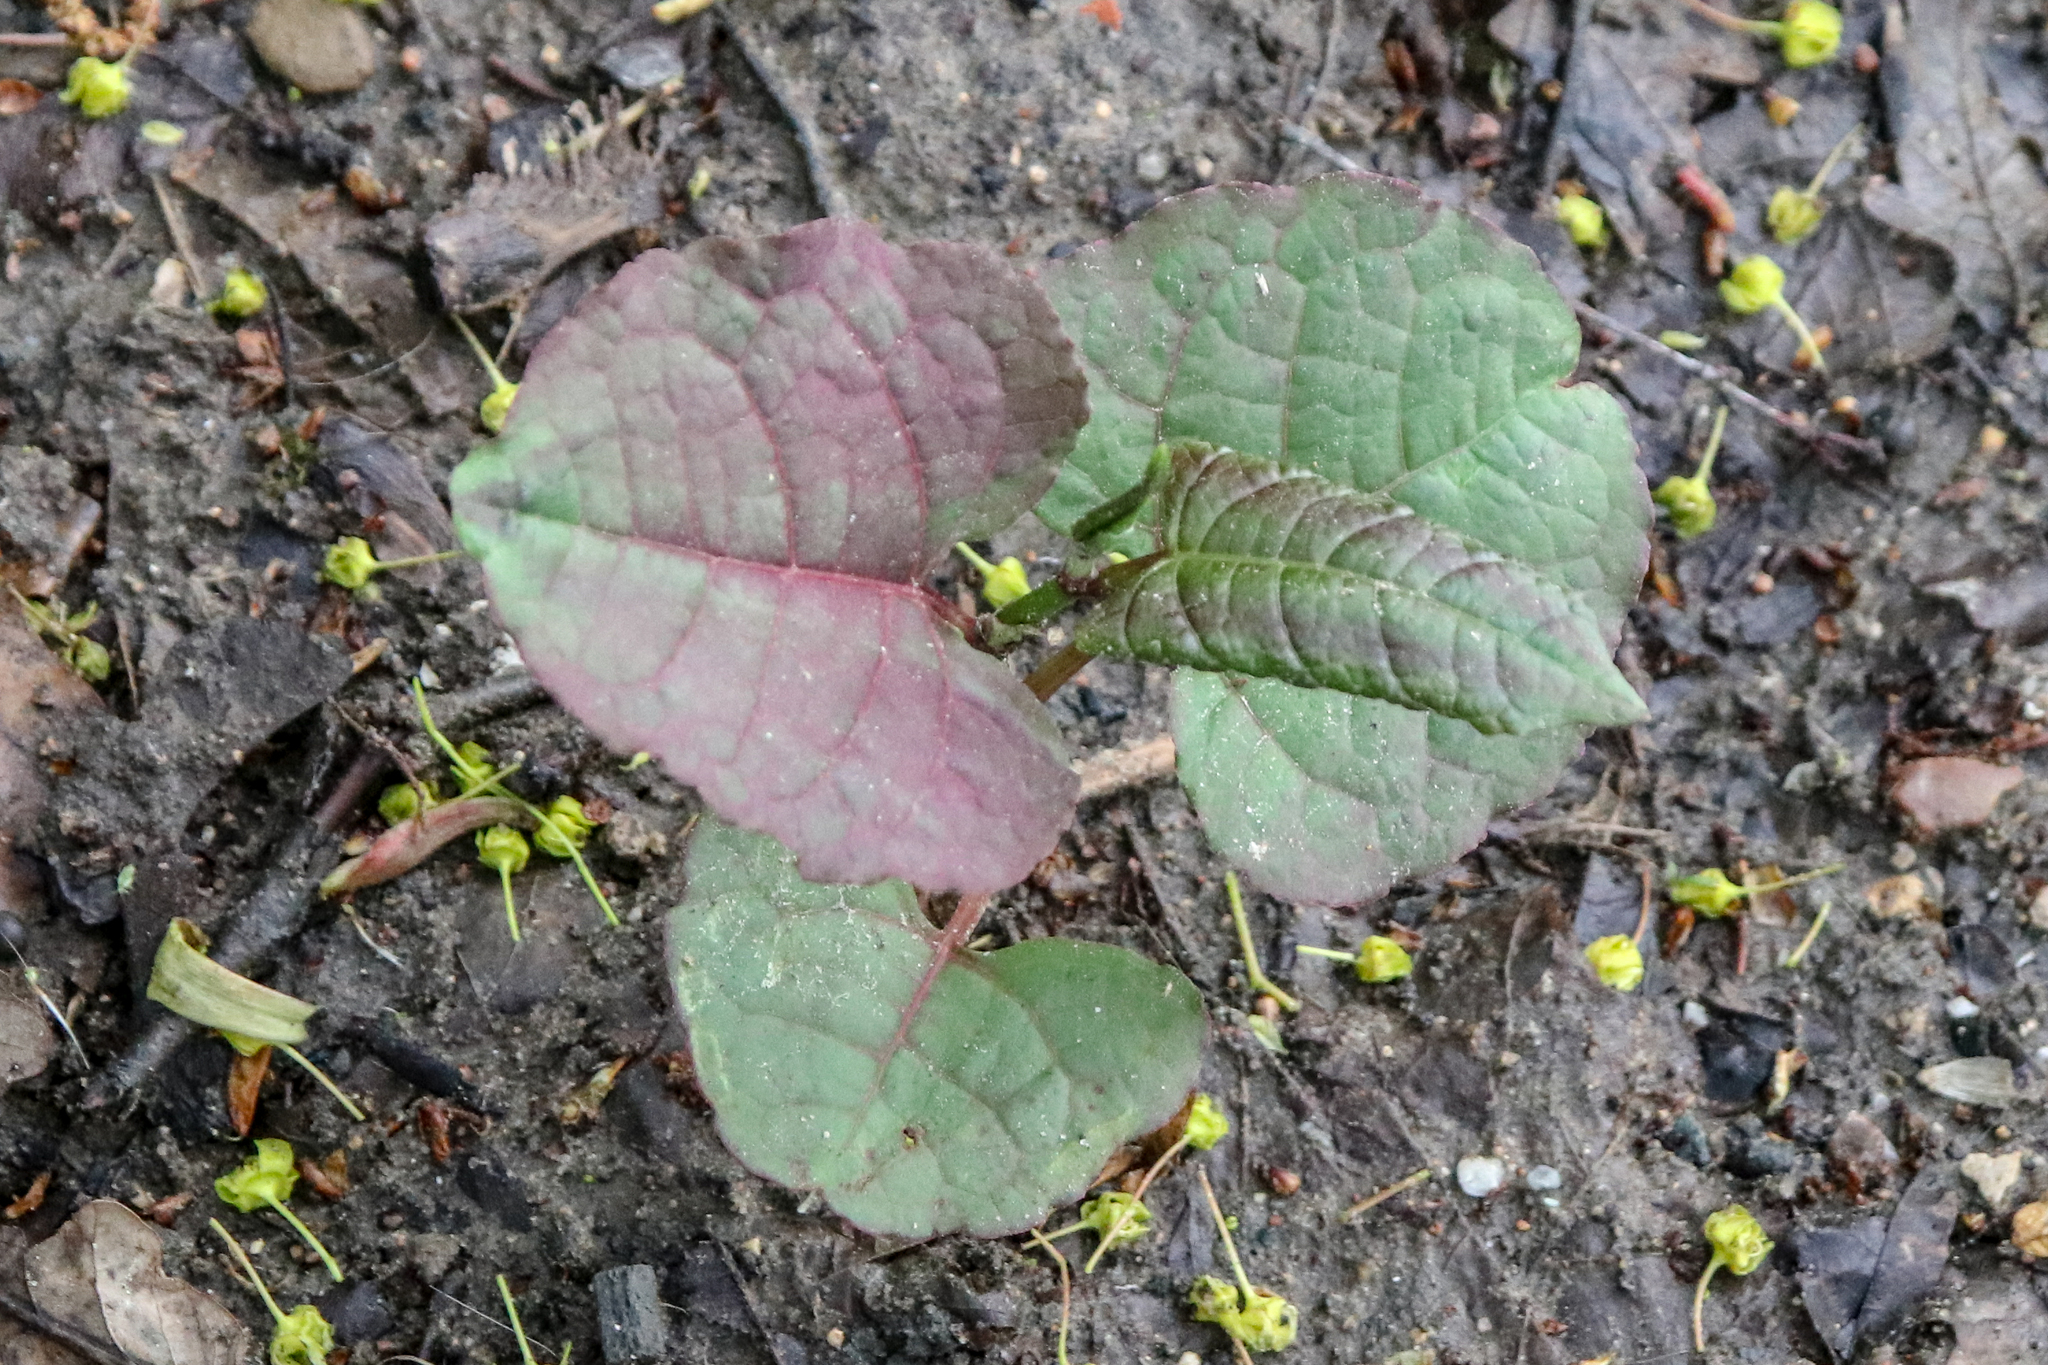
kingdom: Plantae
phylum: Tracheophyta
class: Magnoliopsida
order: Caryophyllales
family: Polygonaceae
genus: Reynoutria
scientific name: Reynoutria bohemica
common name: Bohemian knotweed
